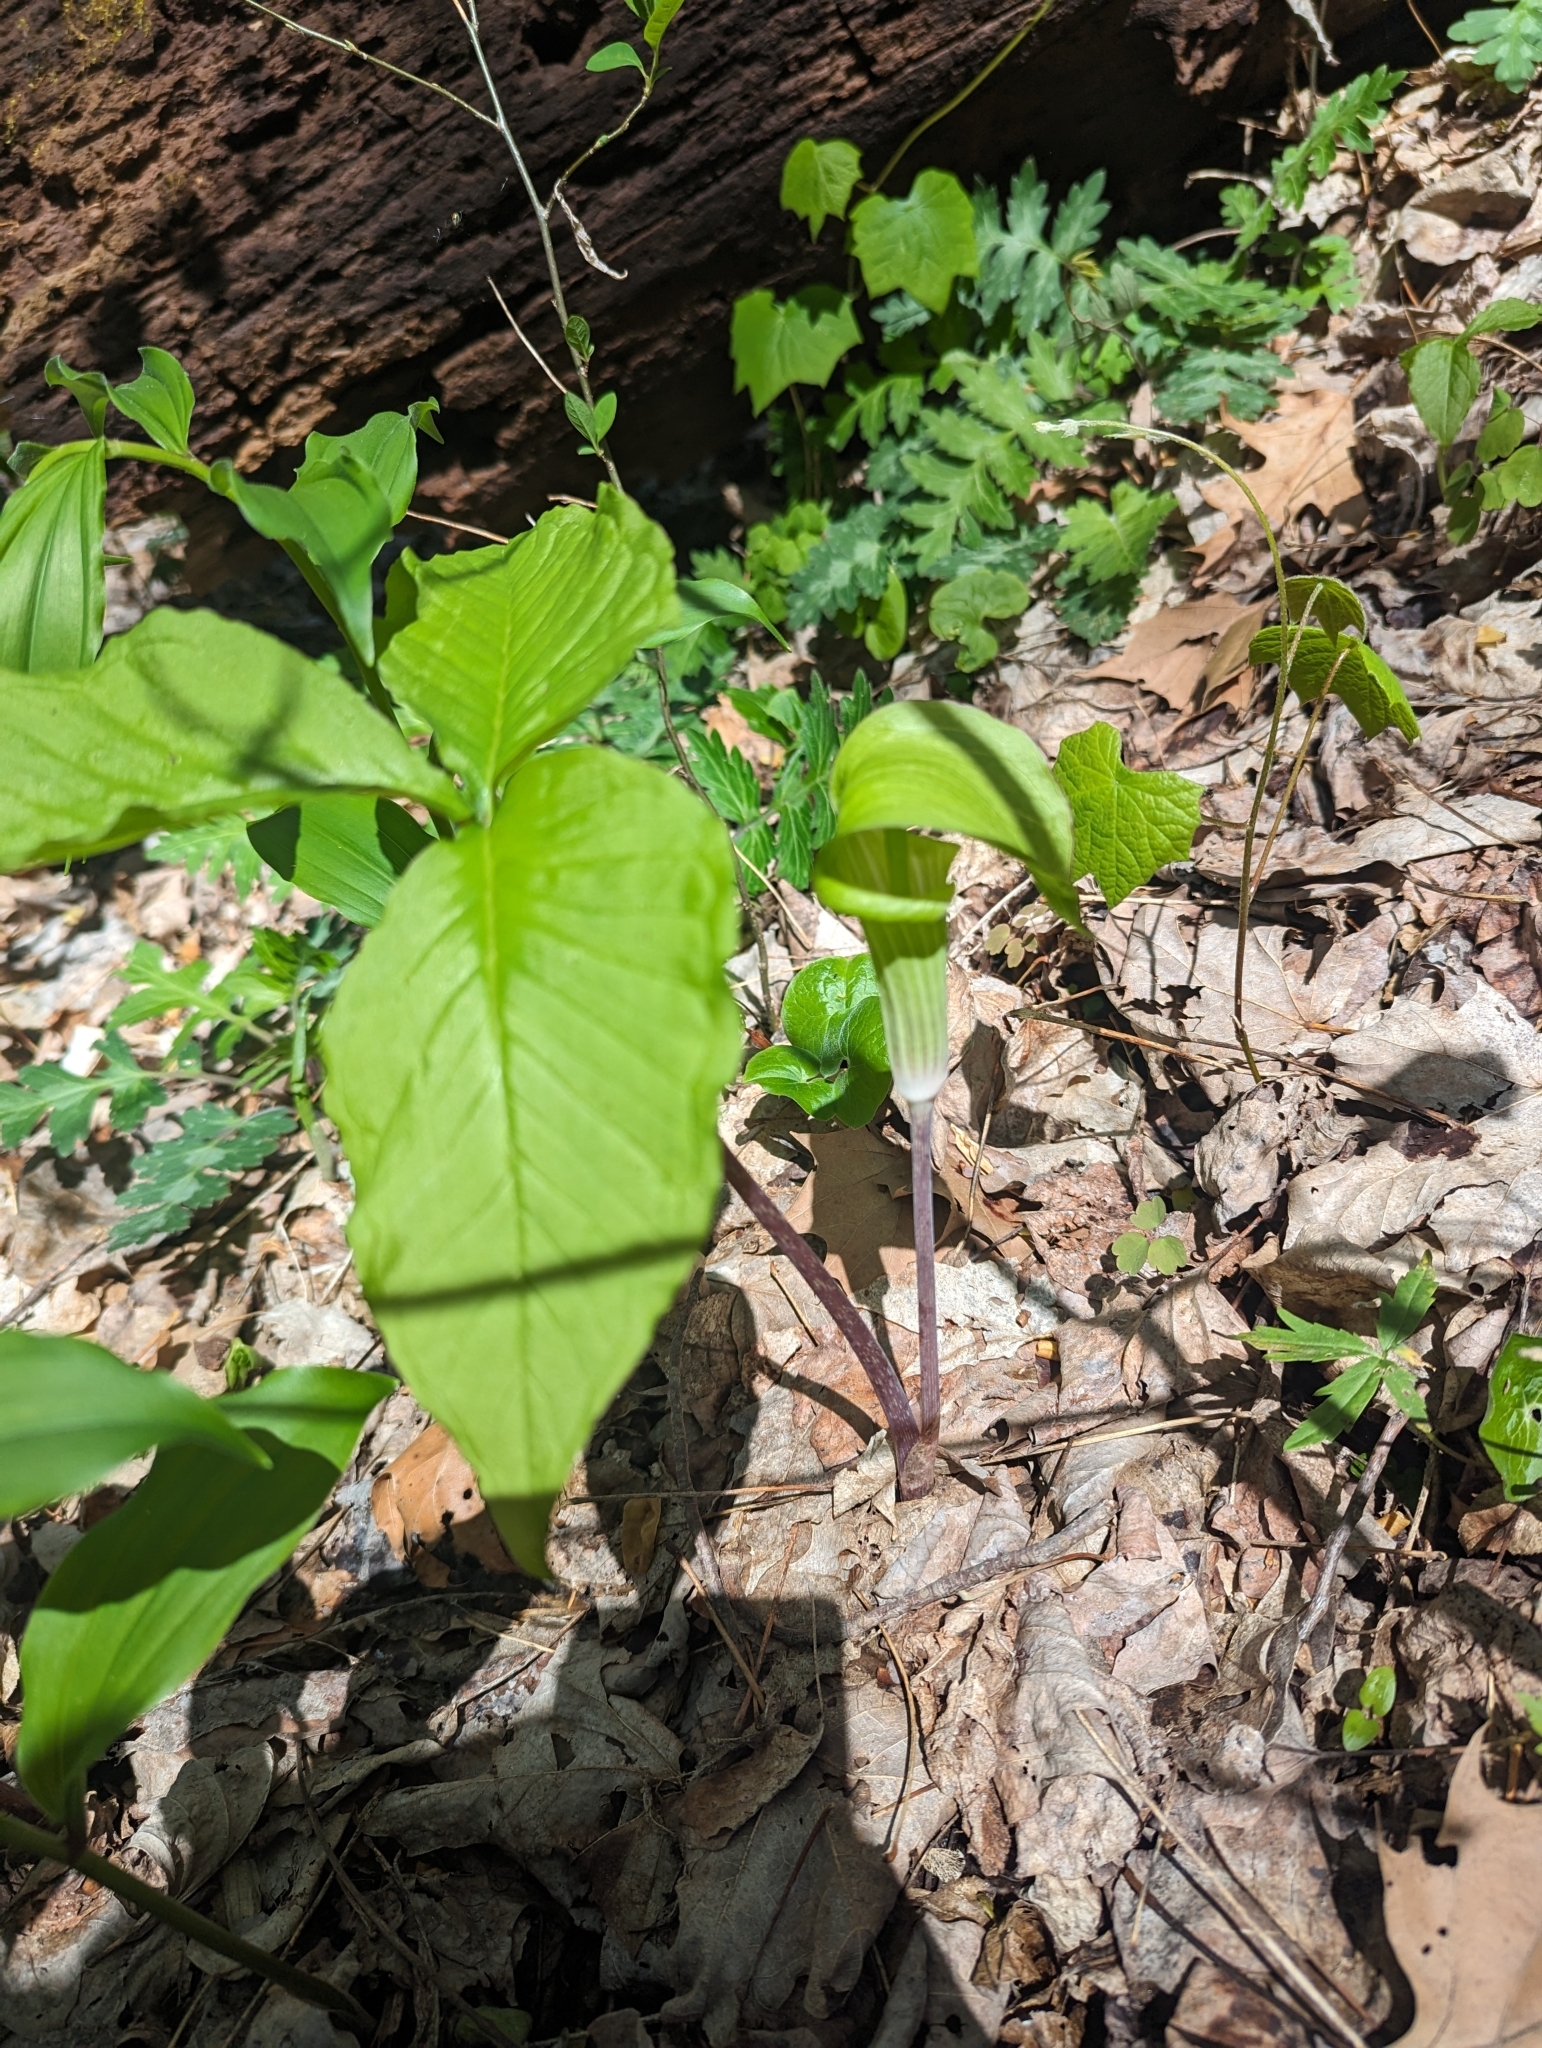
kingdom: Plantae
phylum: Tracheophyta
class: Liliopsida
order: Alismatales
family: Araceae
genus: Arisaema
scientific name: Arisaema triphyllum
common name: Jack-in-the-pulpit
